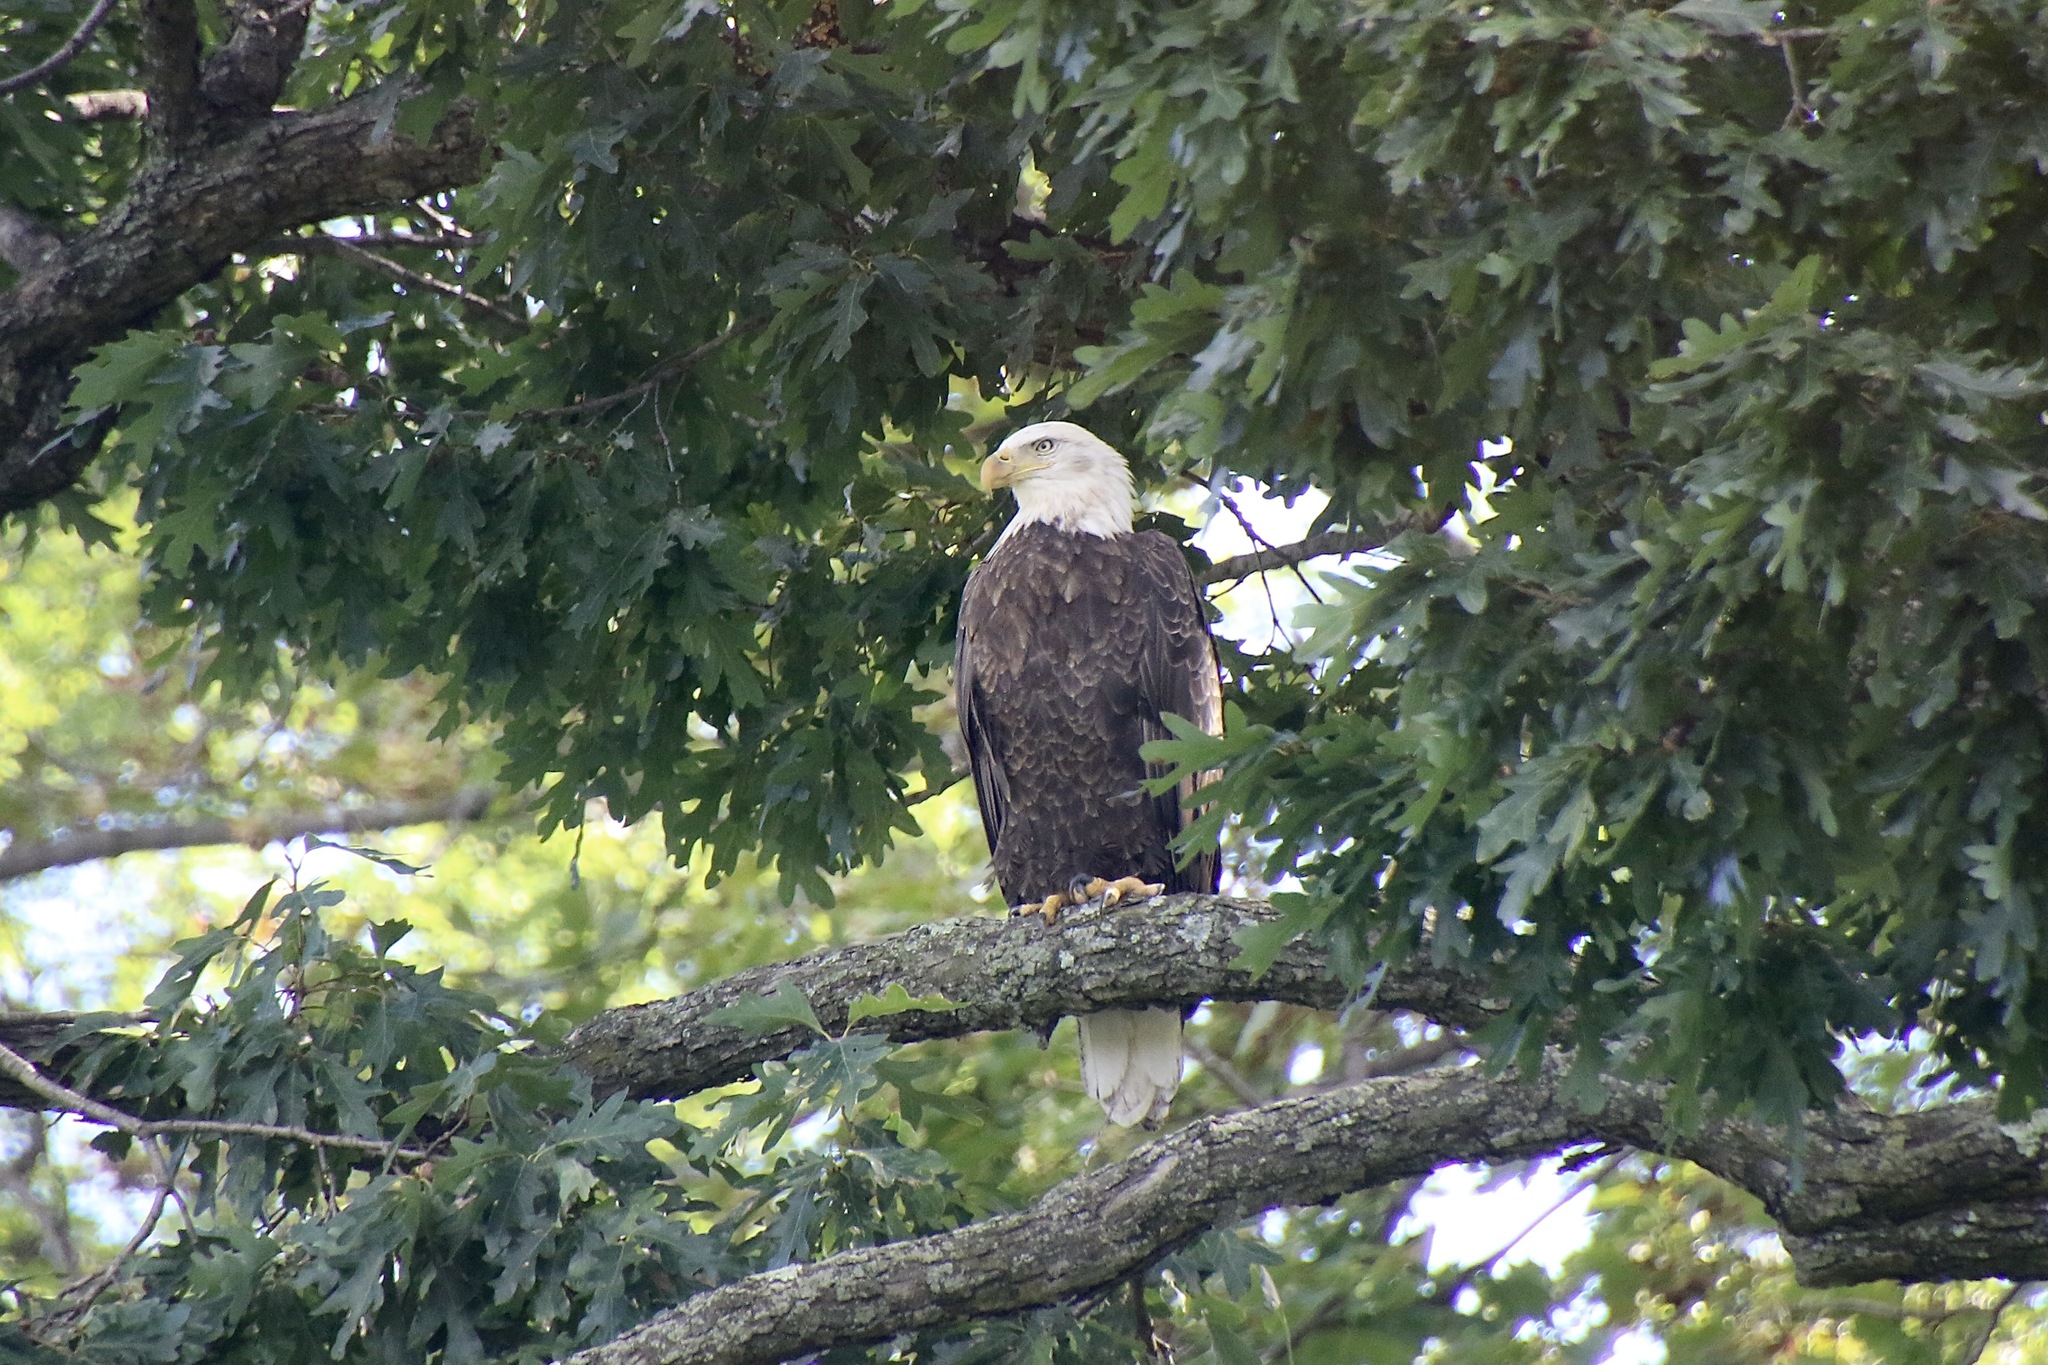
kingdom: Animalia
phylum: Chordata
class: Aves
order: Accipitriformes
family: Accipitridae
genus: Haliaeetus
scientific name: Haliaeetus leucocephalus
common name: Bald eagle
